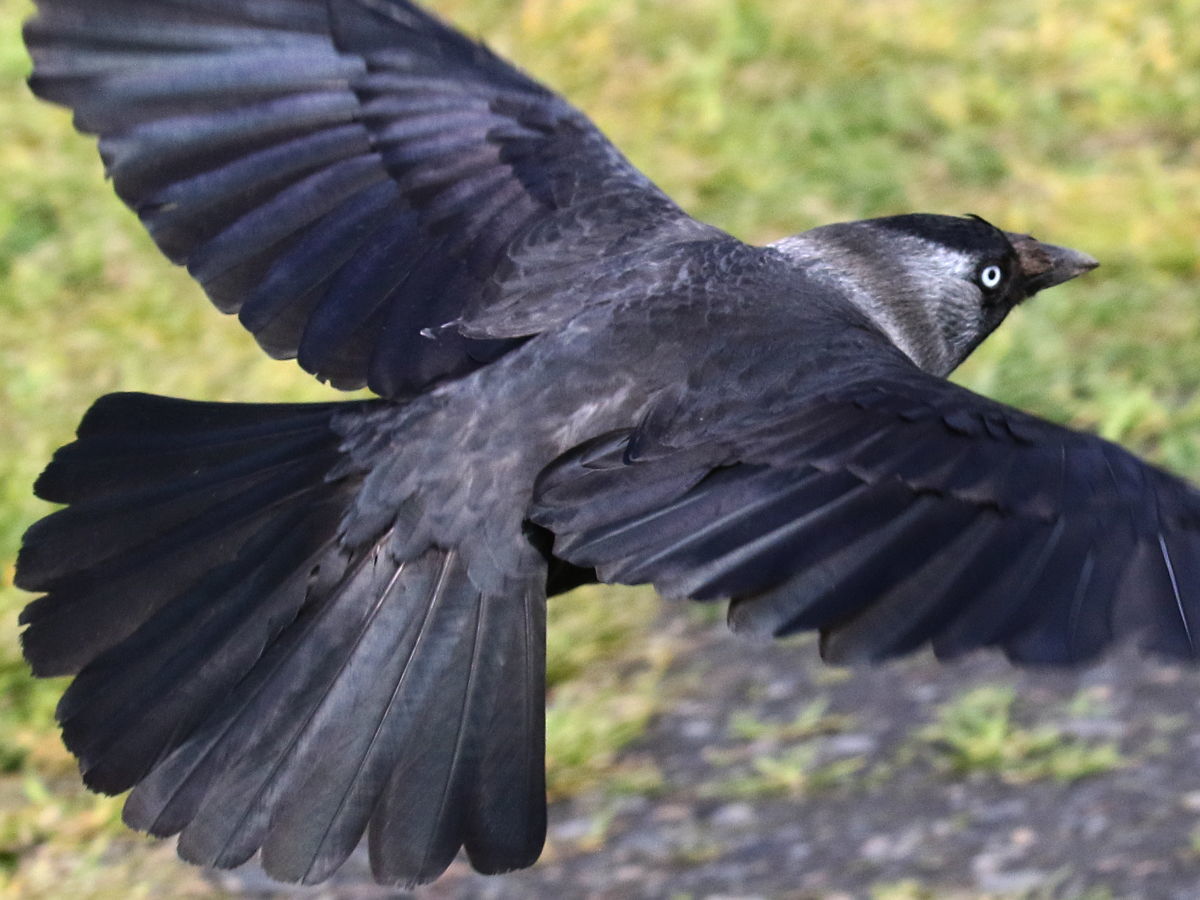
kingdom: Animalia
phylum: Chordata
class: Aves
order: Passeriformes
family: Corvidae
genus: Coloeus
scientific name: Coloeus monedula
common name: Western jackdaw
